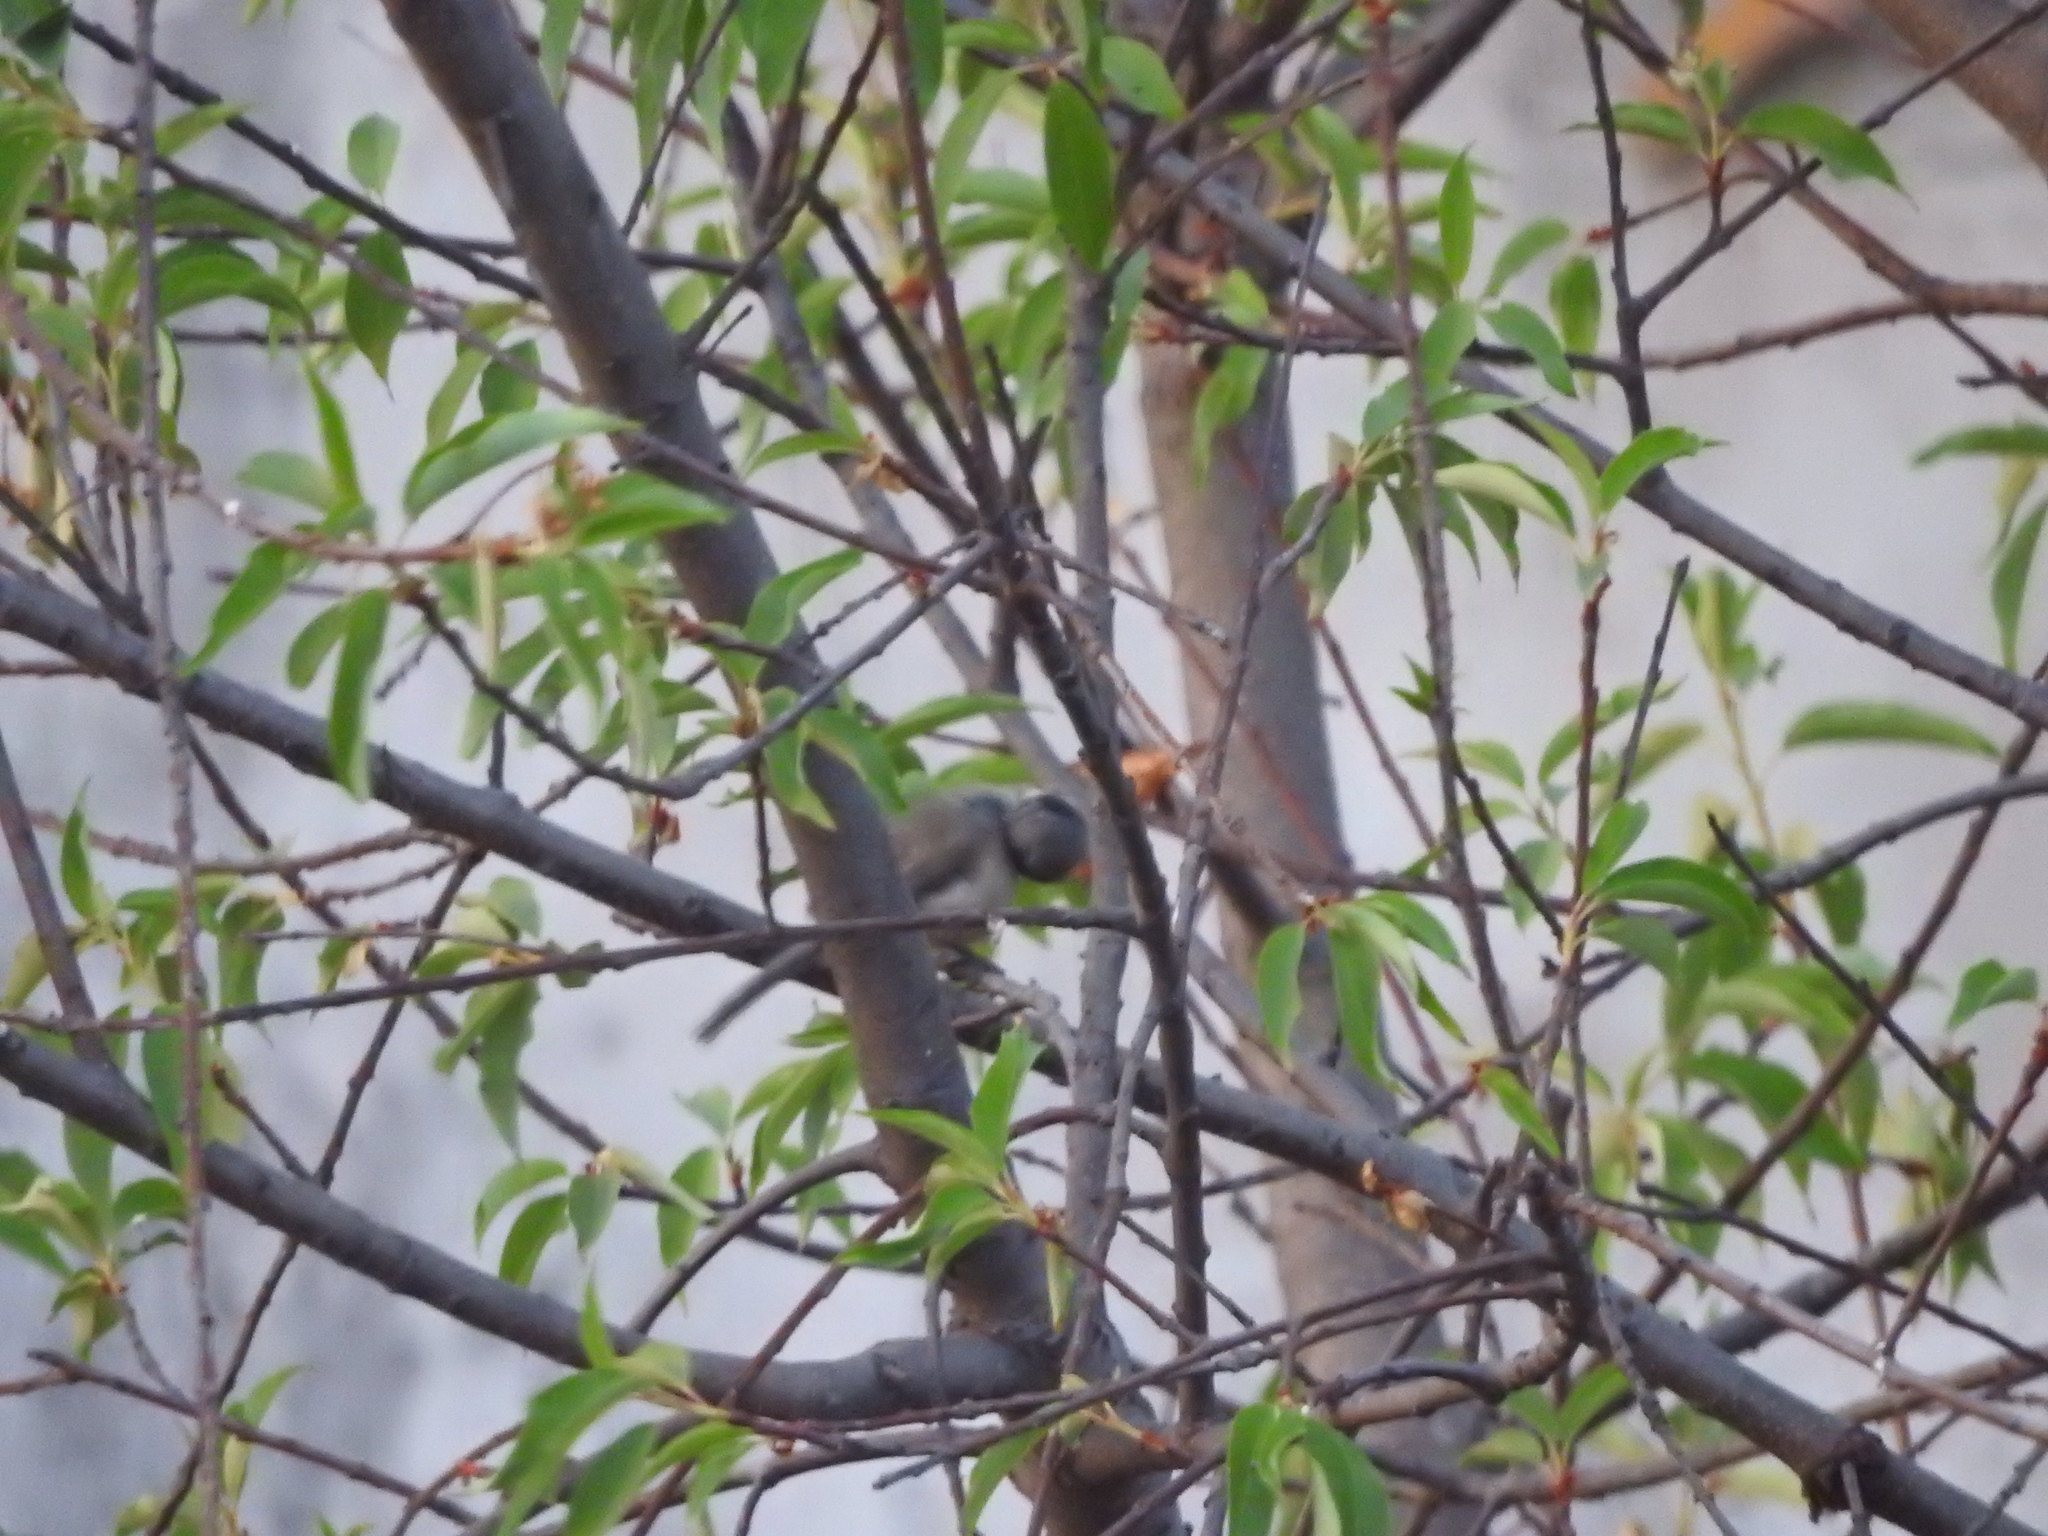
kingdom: Animalia
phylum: Chordata
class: Aves
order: Passeriformes
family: Aegithalidae
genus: Psaltriparus
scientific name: Psaltriparus minimus
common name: American bushtit
